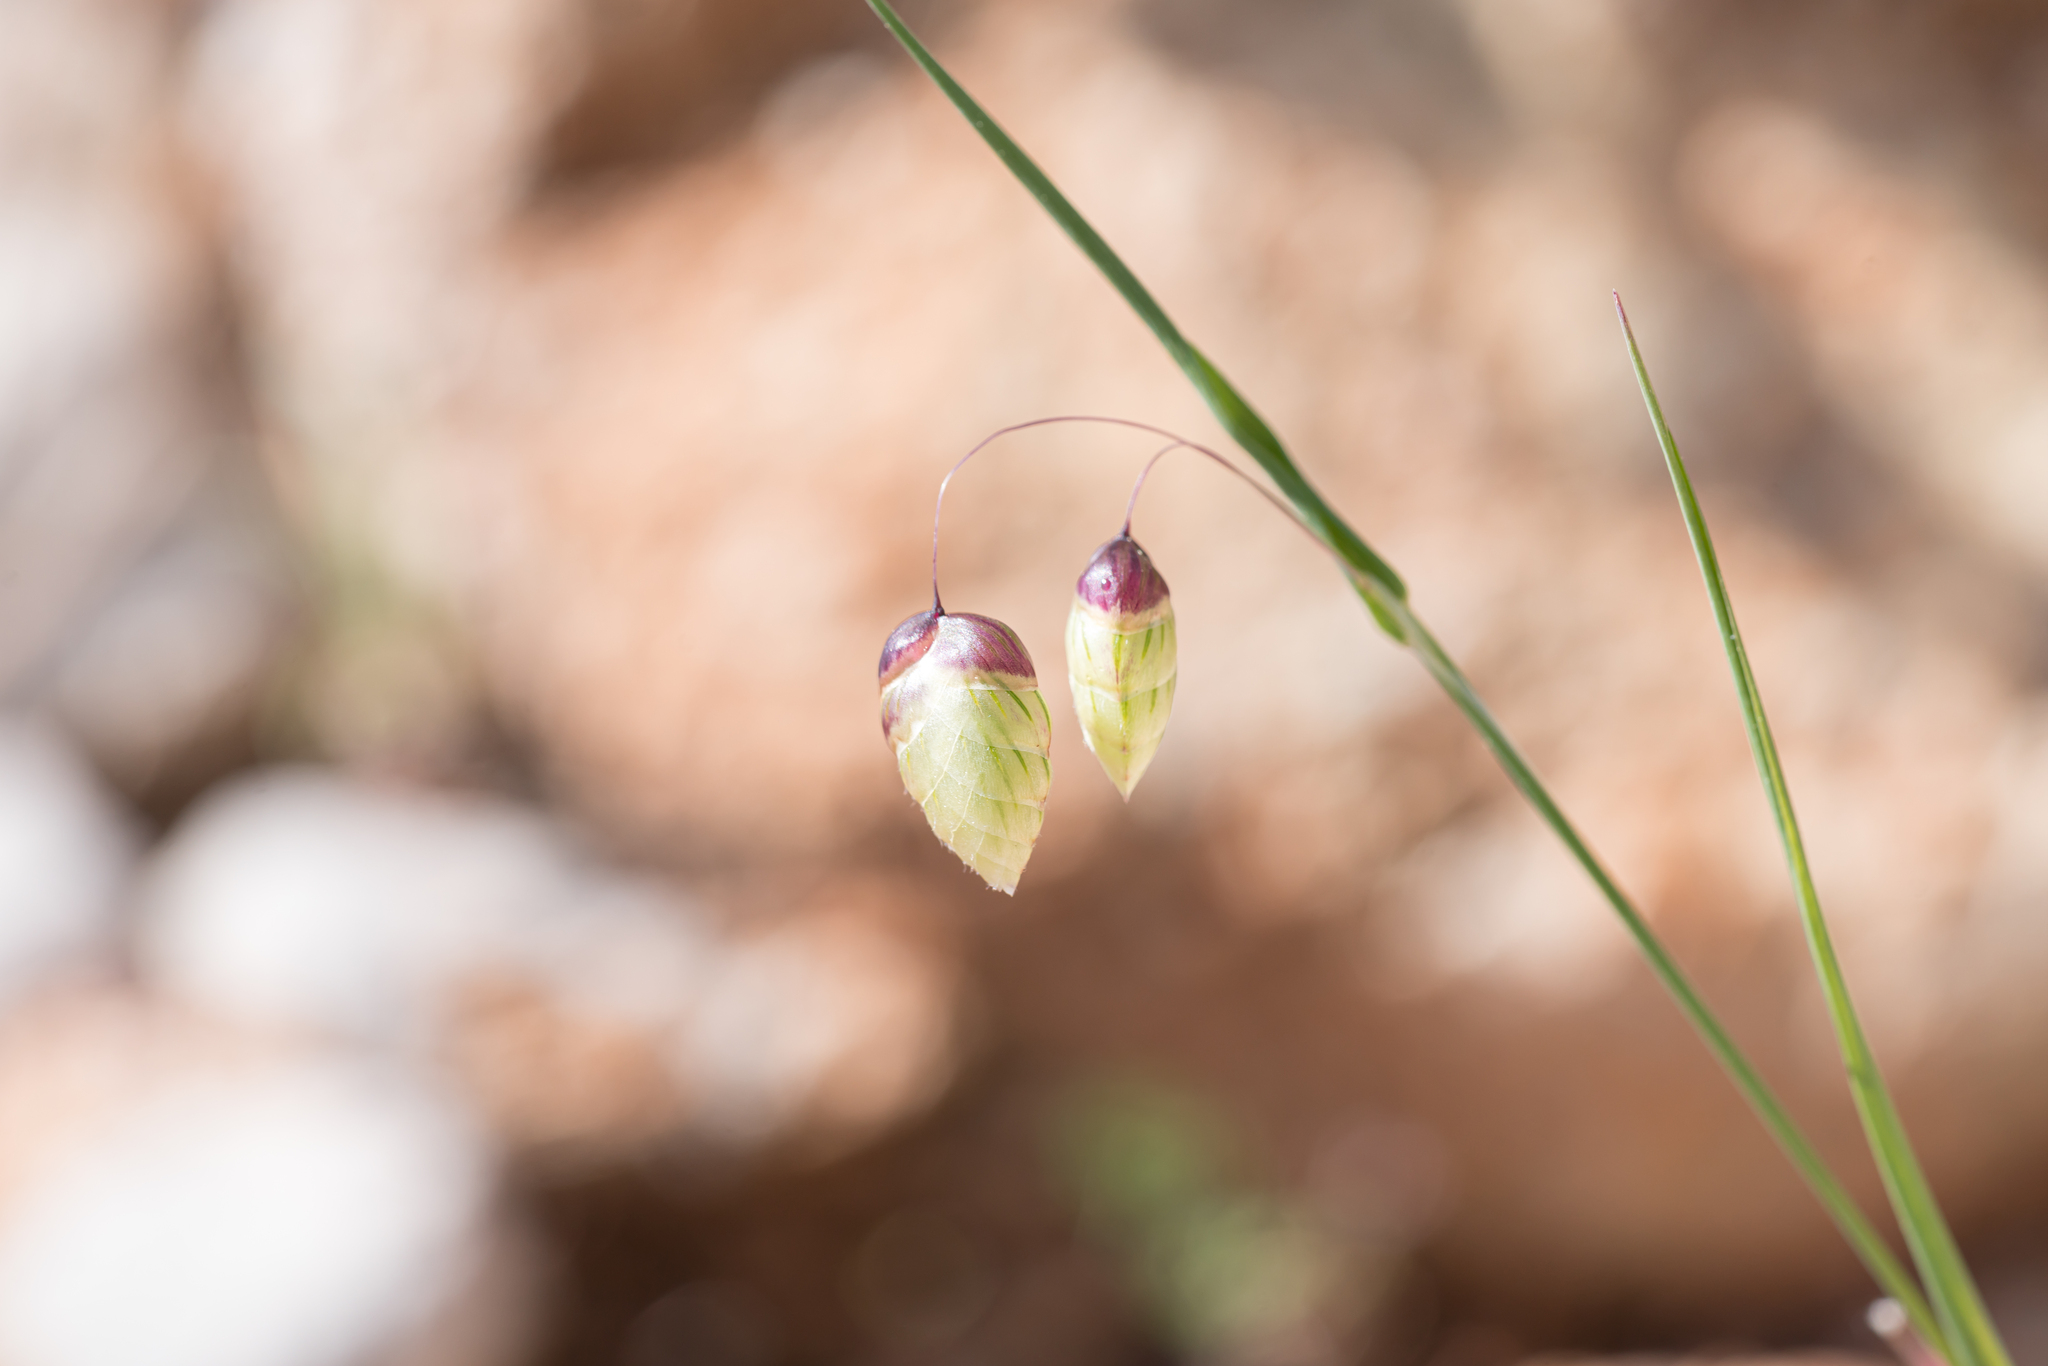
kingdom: Plantae
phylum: Tracheophyta
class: Liliopsida
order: Poales
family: Poaceae
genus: Briza
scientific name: Briza maxima
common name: Big quakinggrass
